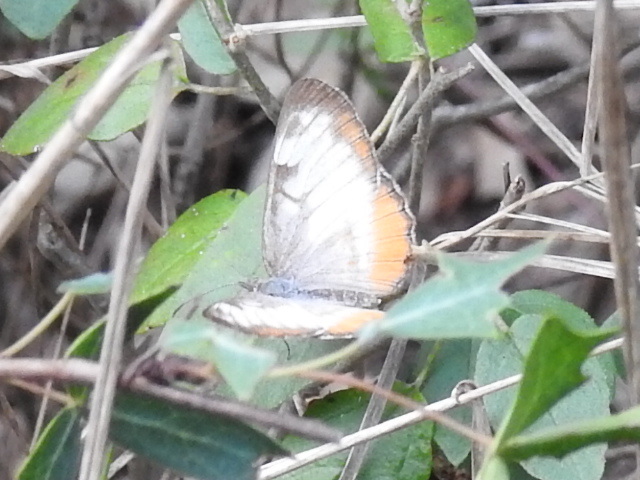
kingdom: Animalia
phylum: Arthropoda
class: Insecta
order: Lepidoptera
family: Nymphalidae
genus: Mestra
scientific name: Mestra amymone
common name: Common mestra
